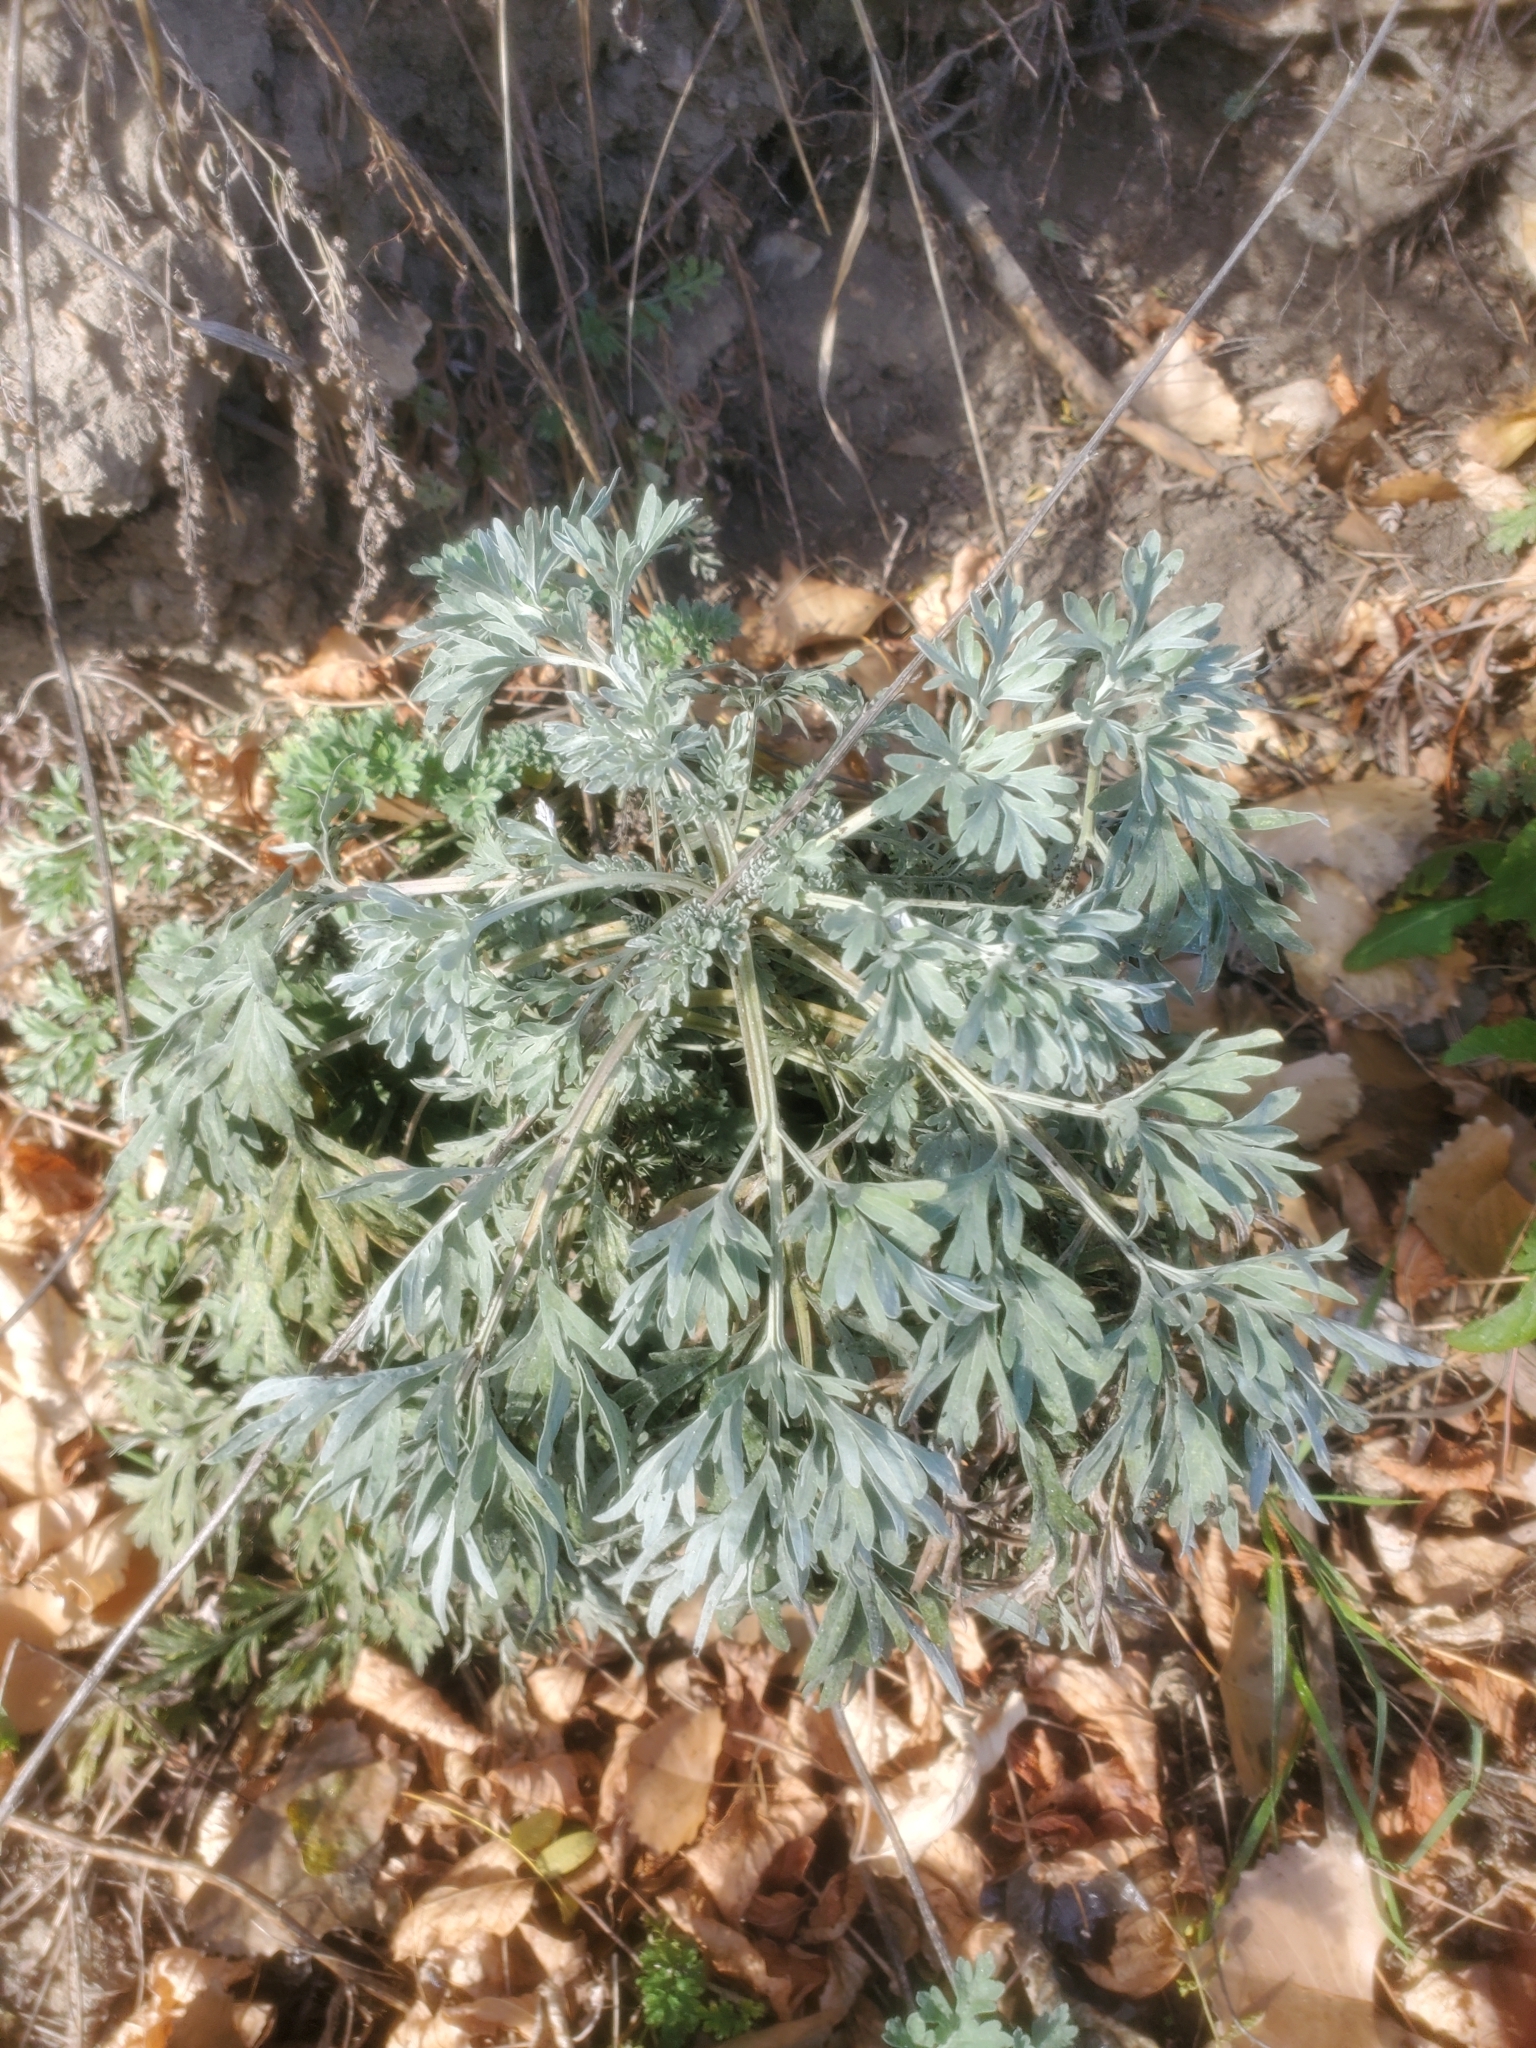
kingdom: Plantae
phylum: Tracheophyta
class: Magnoliopsida
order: Asterales
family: Asteraceae
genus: Artemisia
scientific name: Artemisia absinthium
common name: Wormwood
